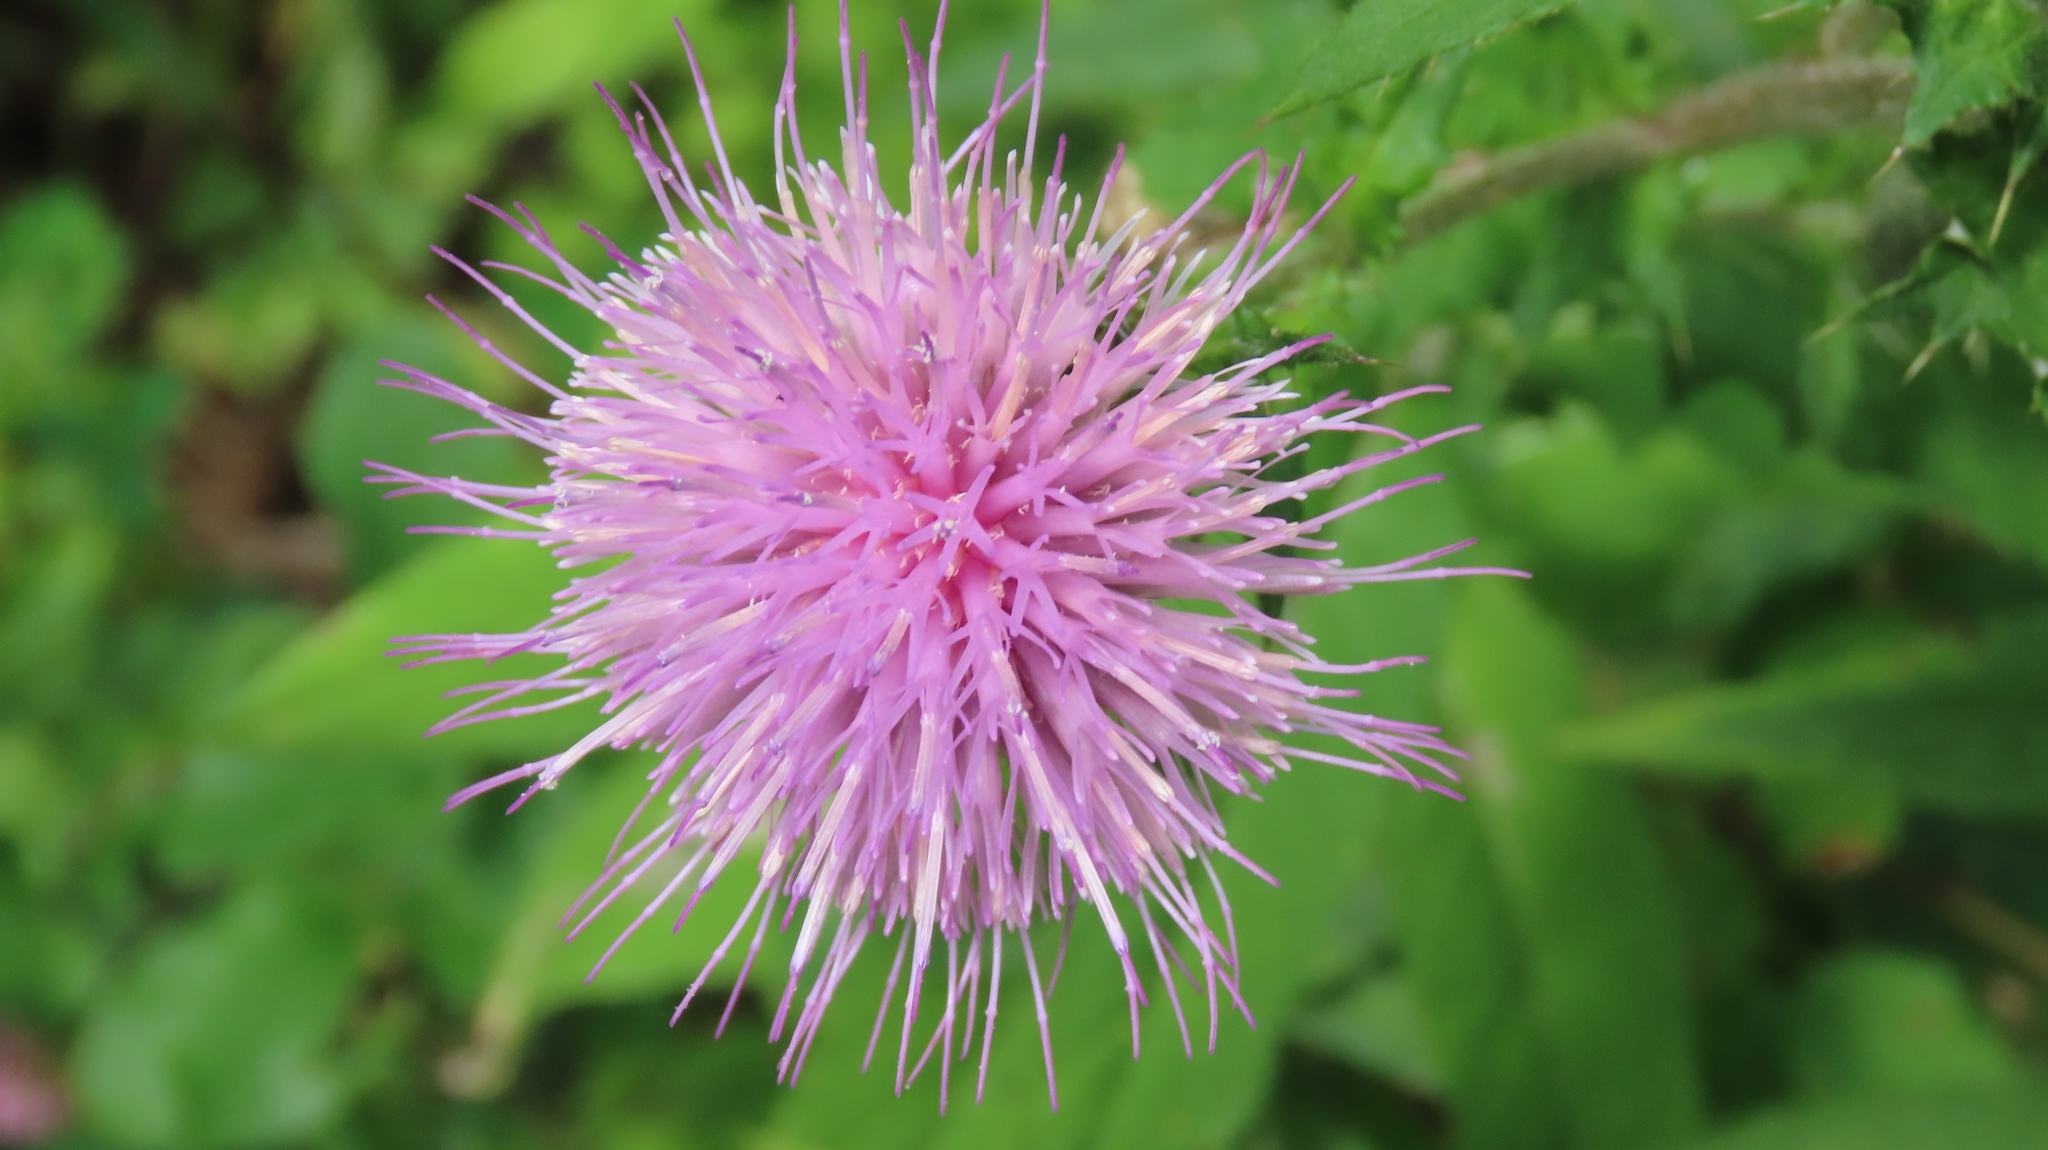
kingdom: Plantae
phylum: Tracheophyta
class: Magnoliopsida
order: Asterales
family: Asteraceae
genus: Cirsium
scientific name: Cirsium altissimum
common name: Roadside thistle
